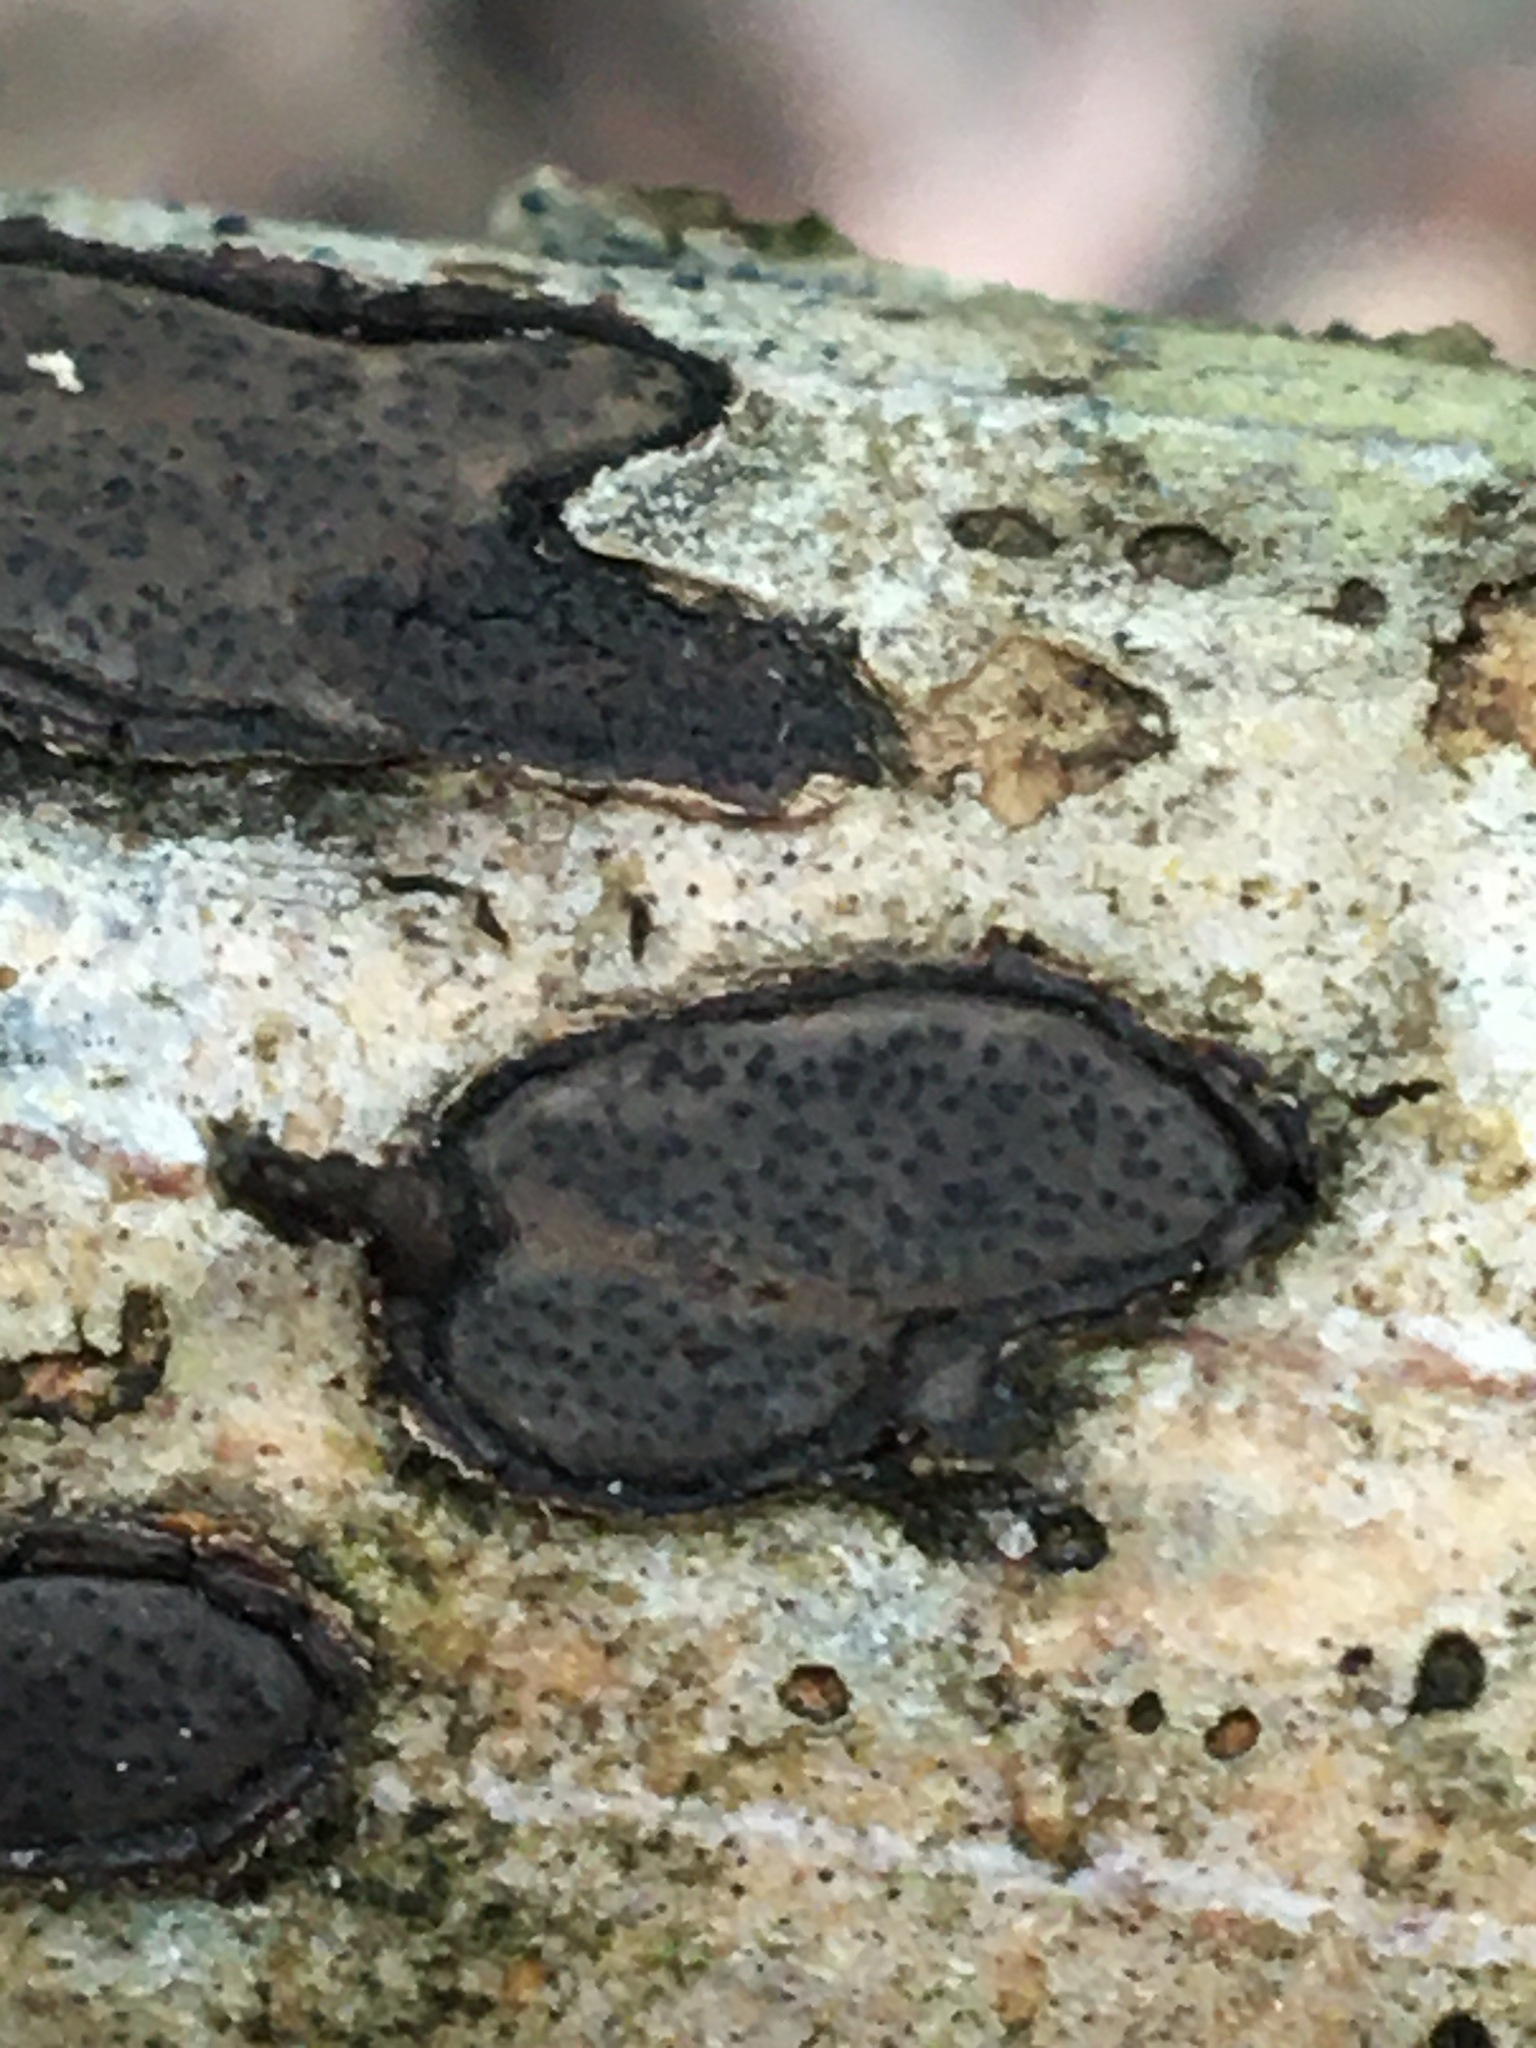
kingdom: Fungi
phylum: Ascomycota
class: Sordariomycetes
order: Xylariales
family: Graphostromataceae
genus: Biscogniauxia
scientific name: Biscogniauxia capnodes
